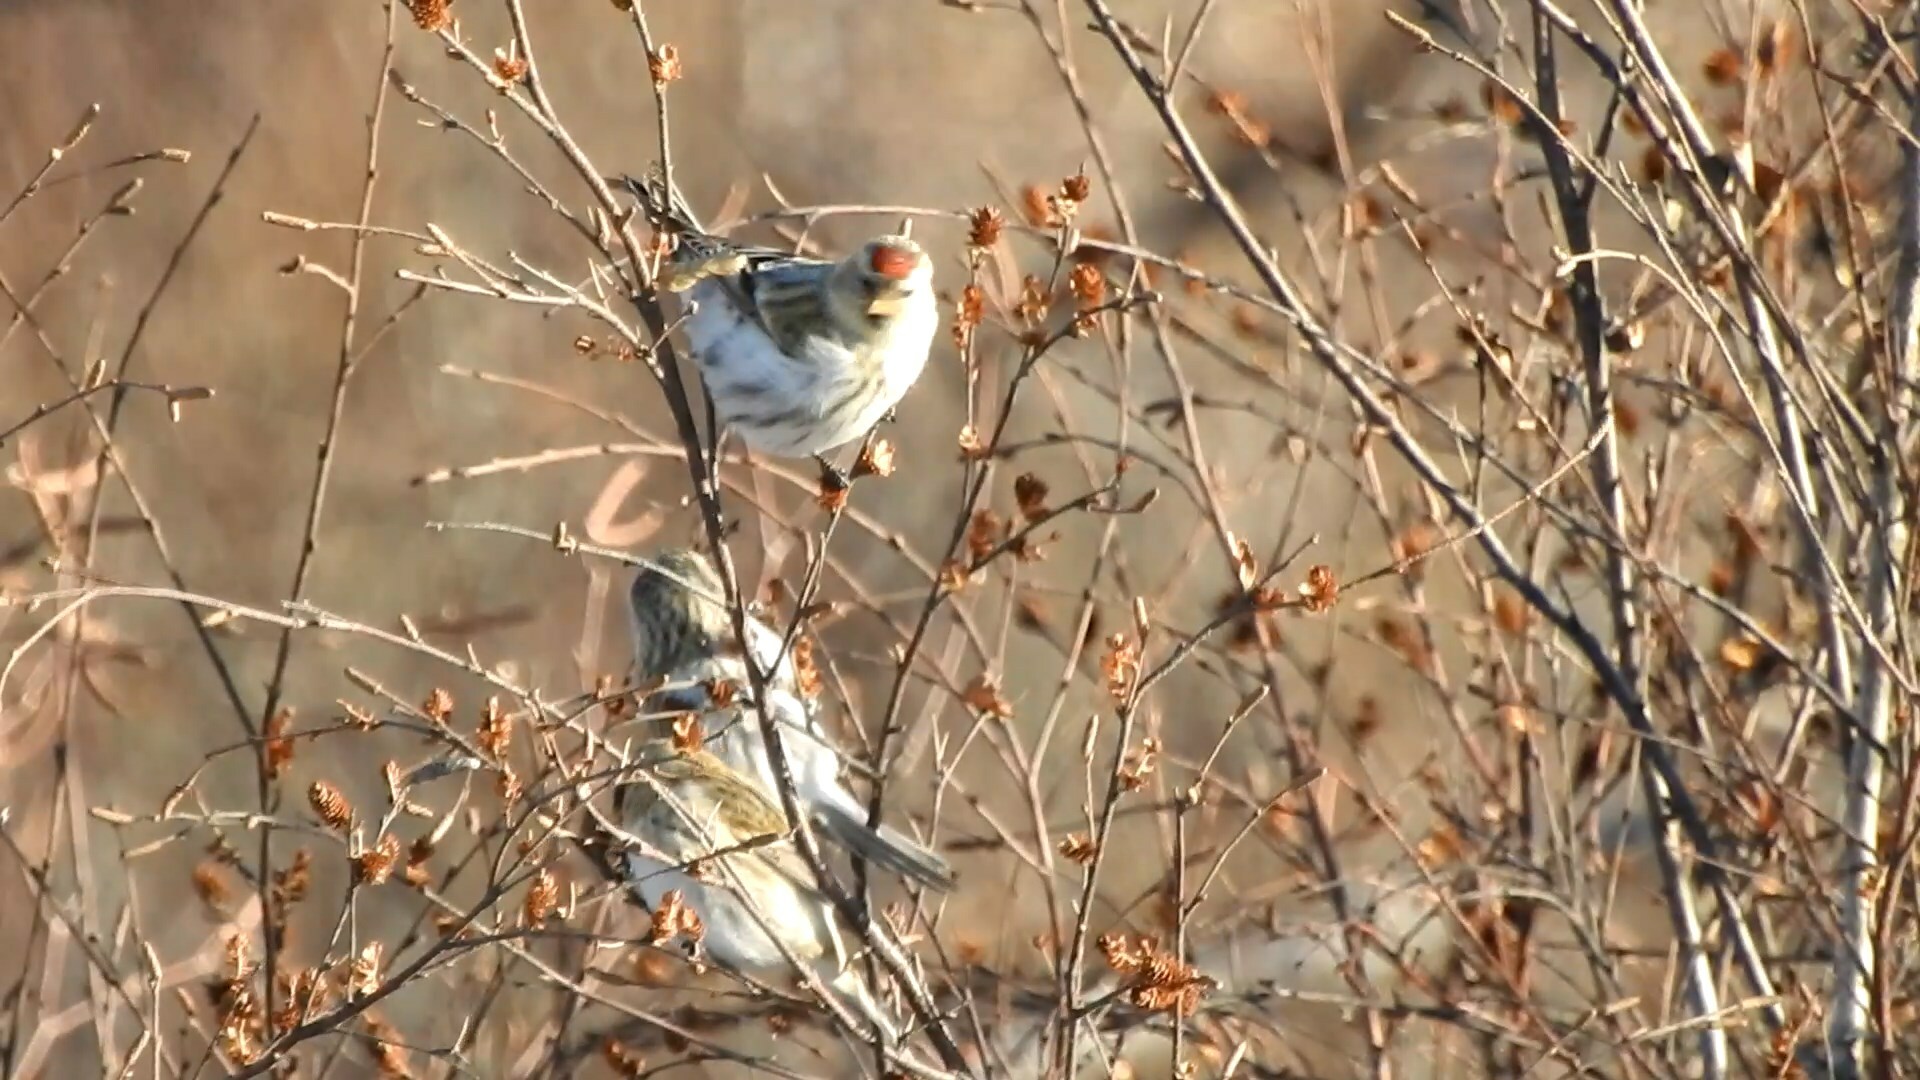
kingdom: Animalia
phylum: Chordata
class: Aves
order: Passeriformes
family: Fringillidae
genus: Acanthis
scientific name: Acanthis hornemanni
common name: Arctic redpoll
